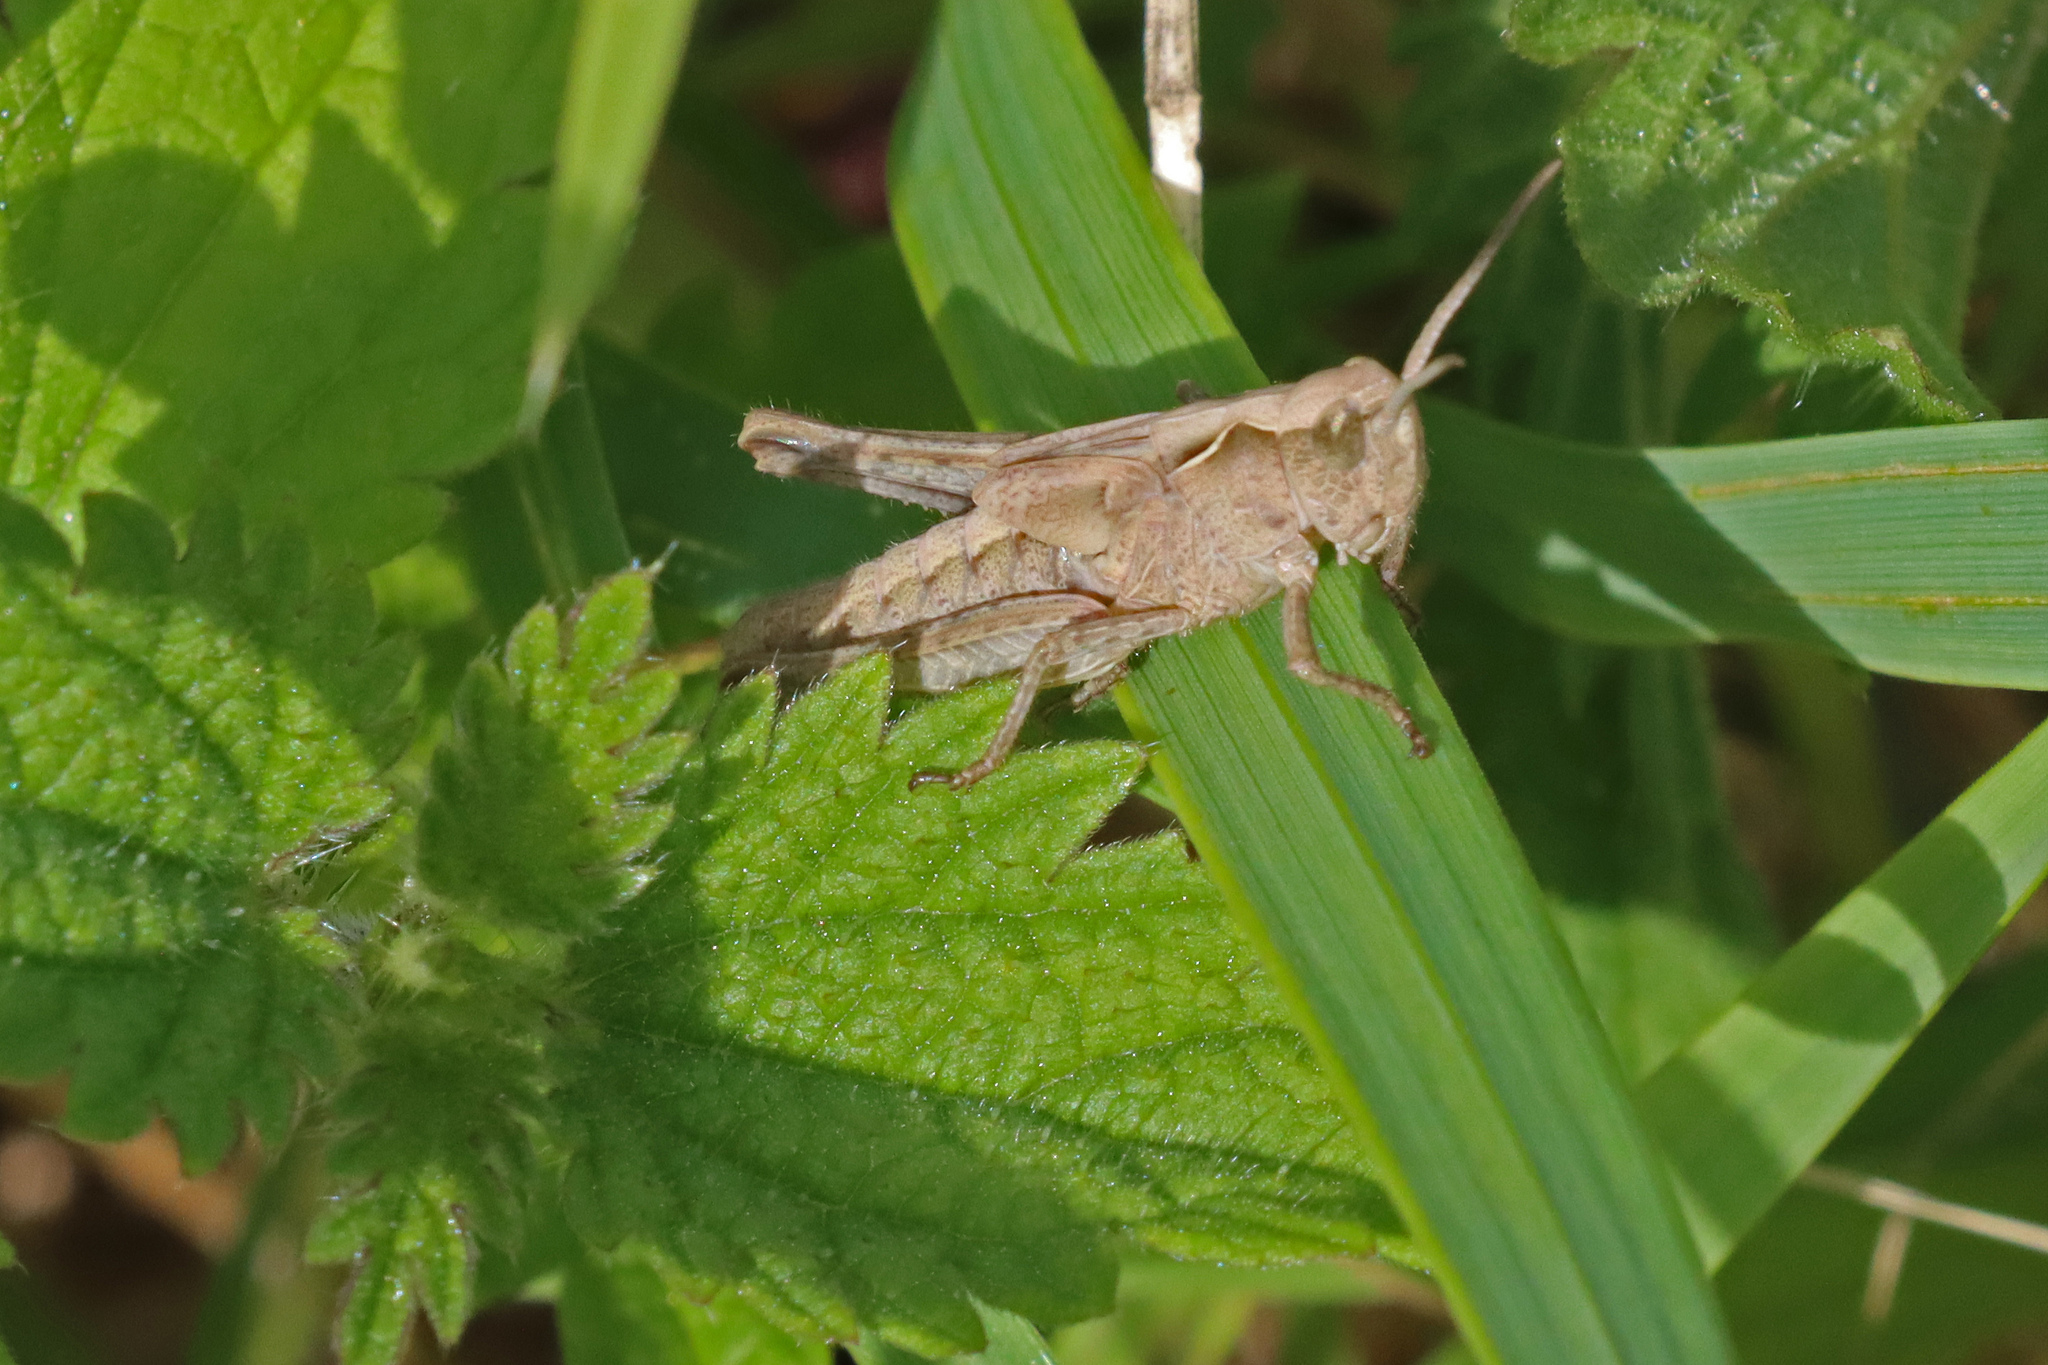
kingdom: Animalia
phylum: Arthropoda
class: Insecta
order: Orthoptera
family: Acrididae
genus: Chorthippus
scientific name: Chorthippus brunneus
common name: Field grasshopper
